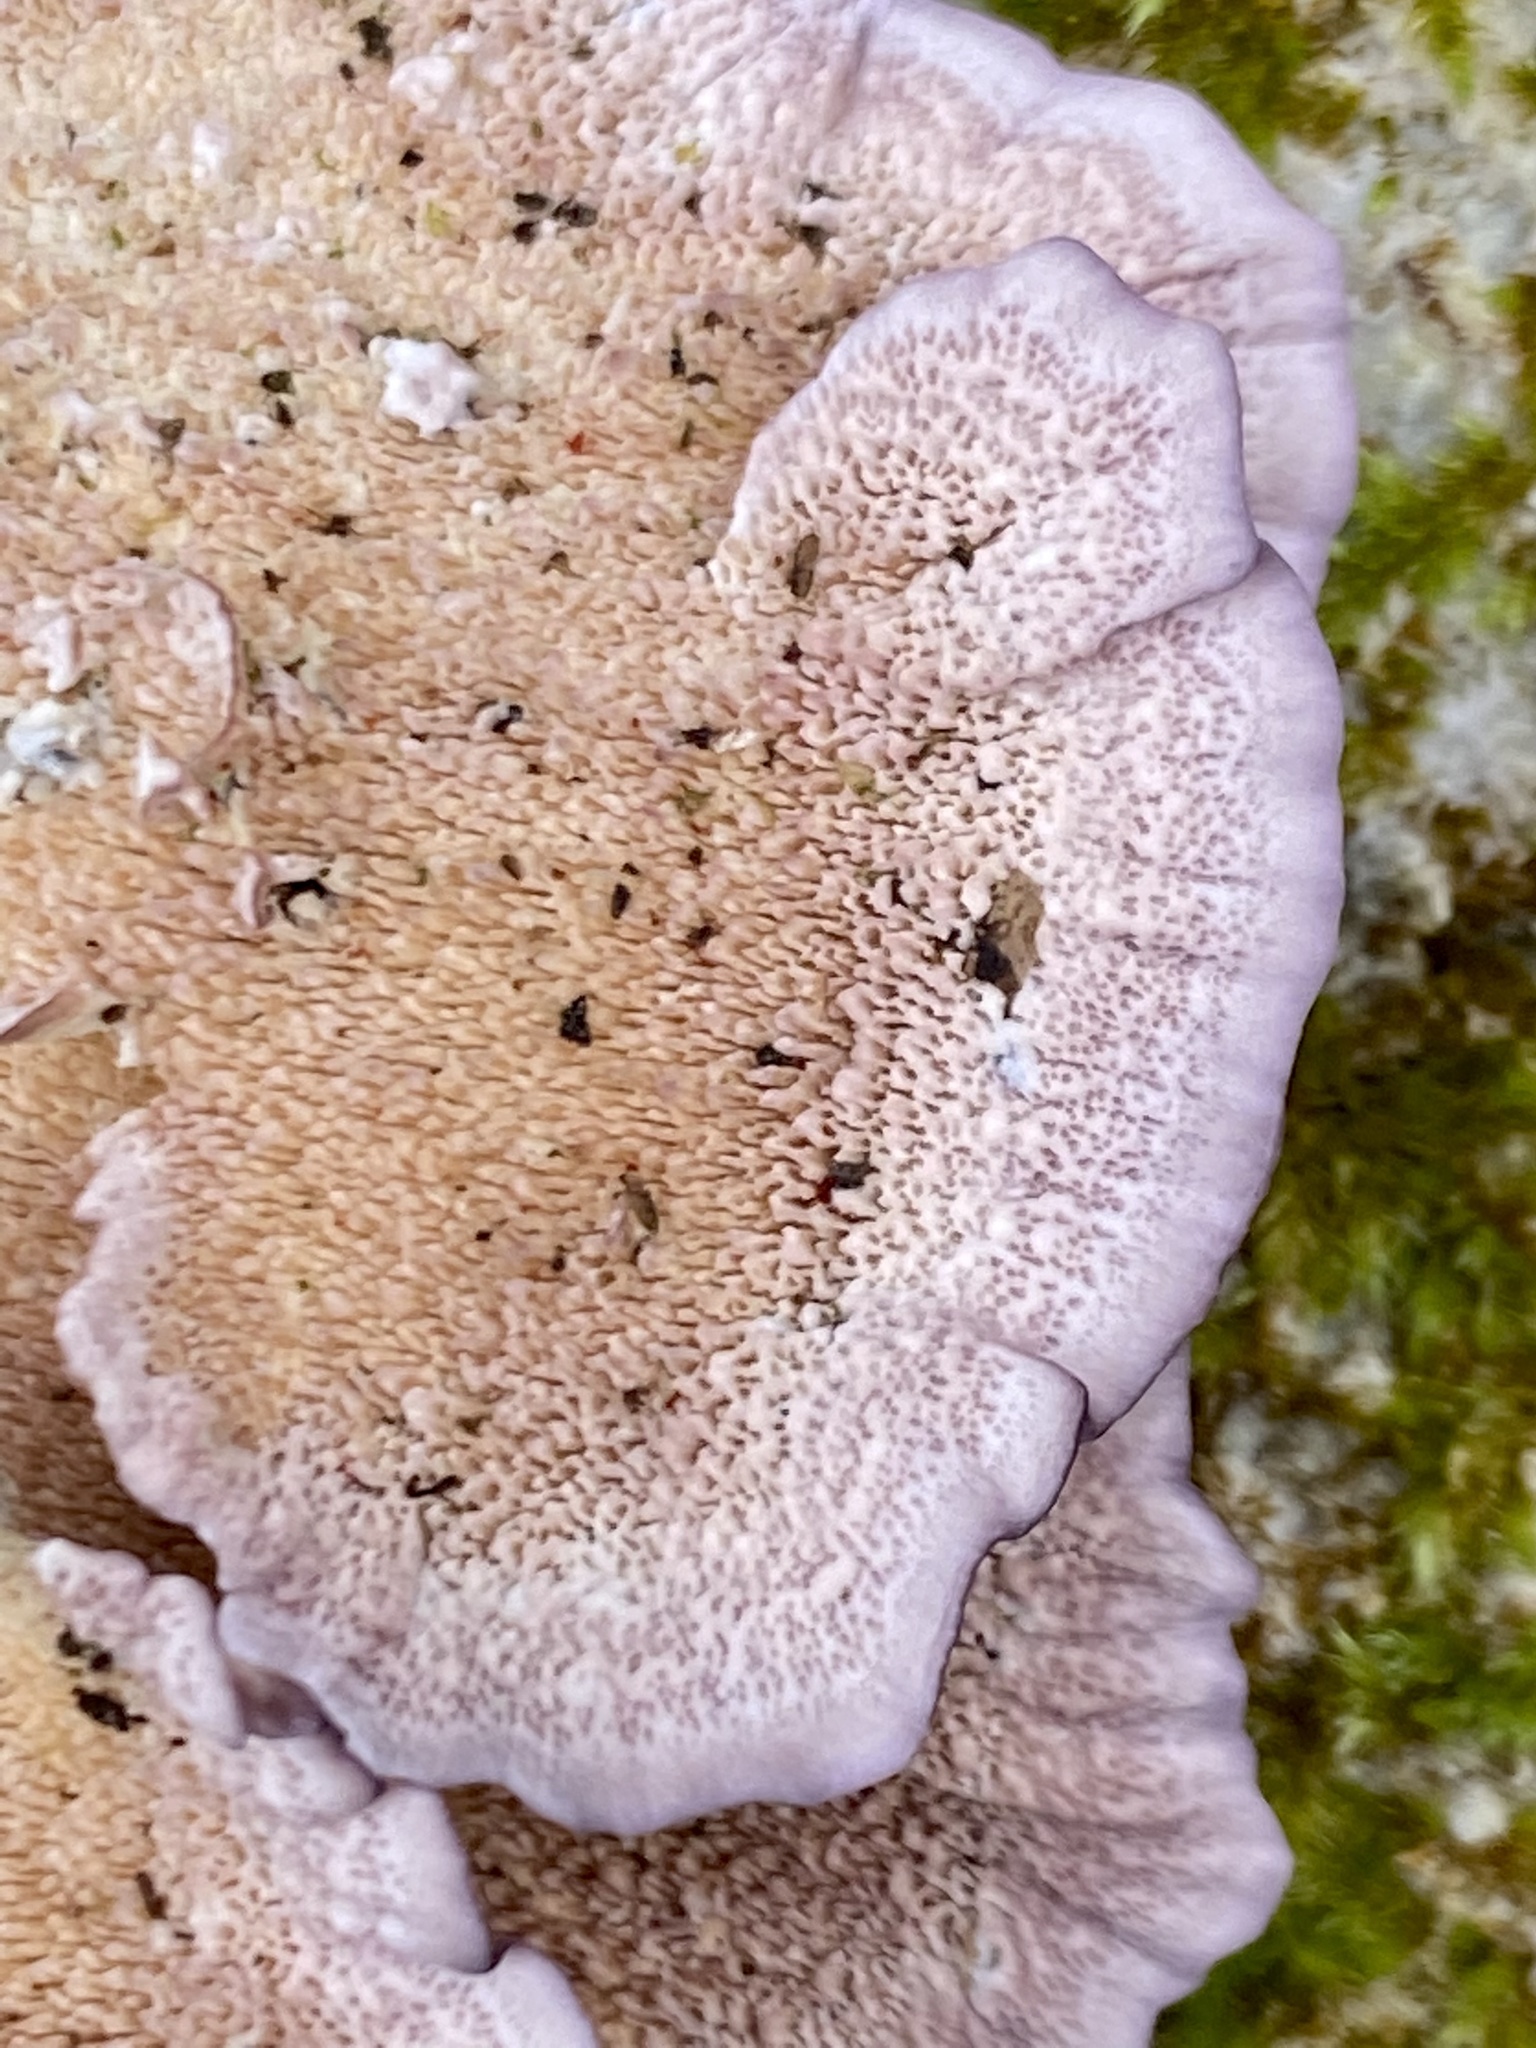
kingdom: Fungi
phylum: Basidiomycota
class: Agaricomycetes
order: Hymenochaetales
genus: Trichaptum
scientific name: Trichaptum biforme
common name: Violet-toothed polypore
